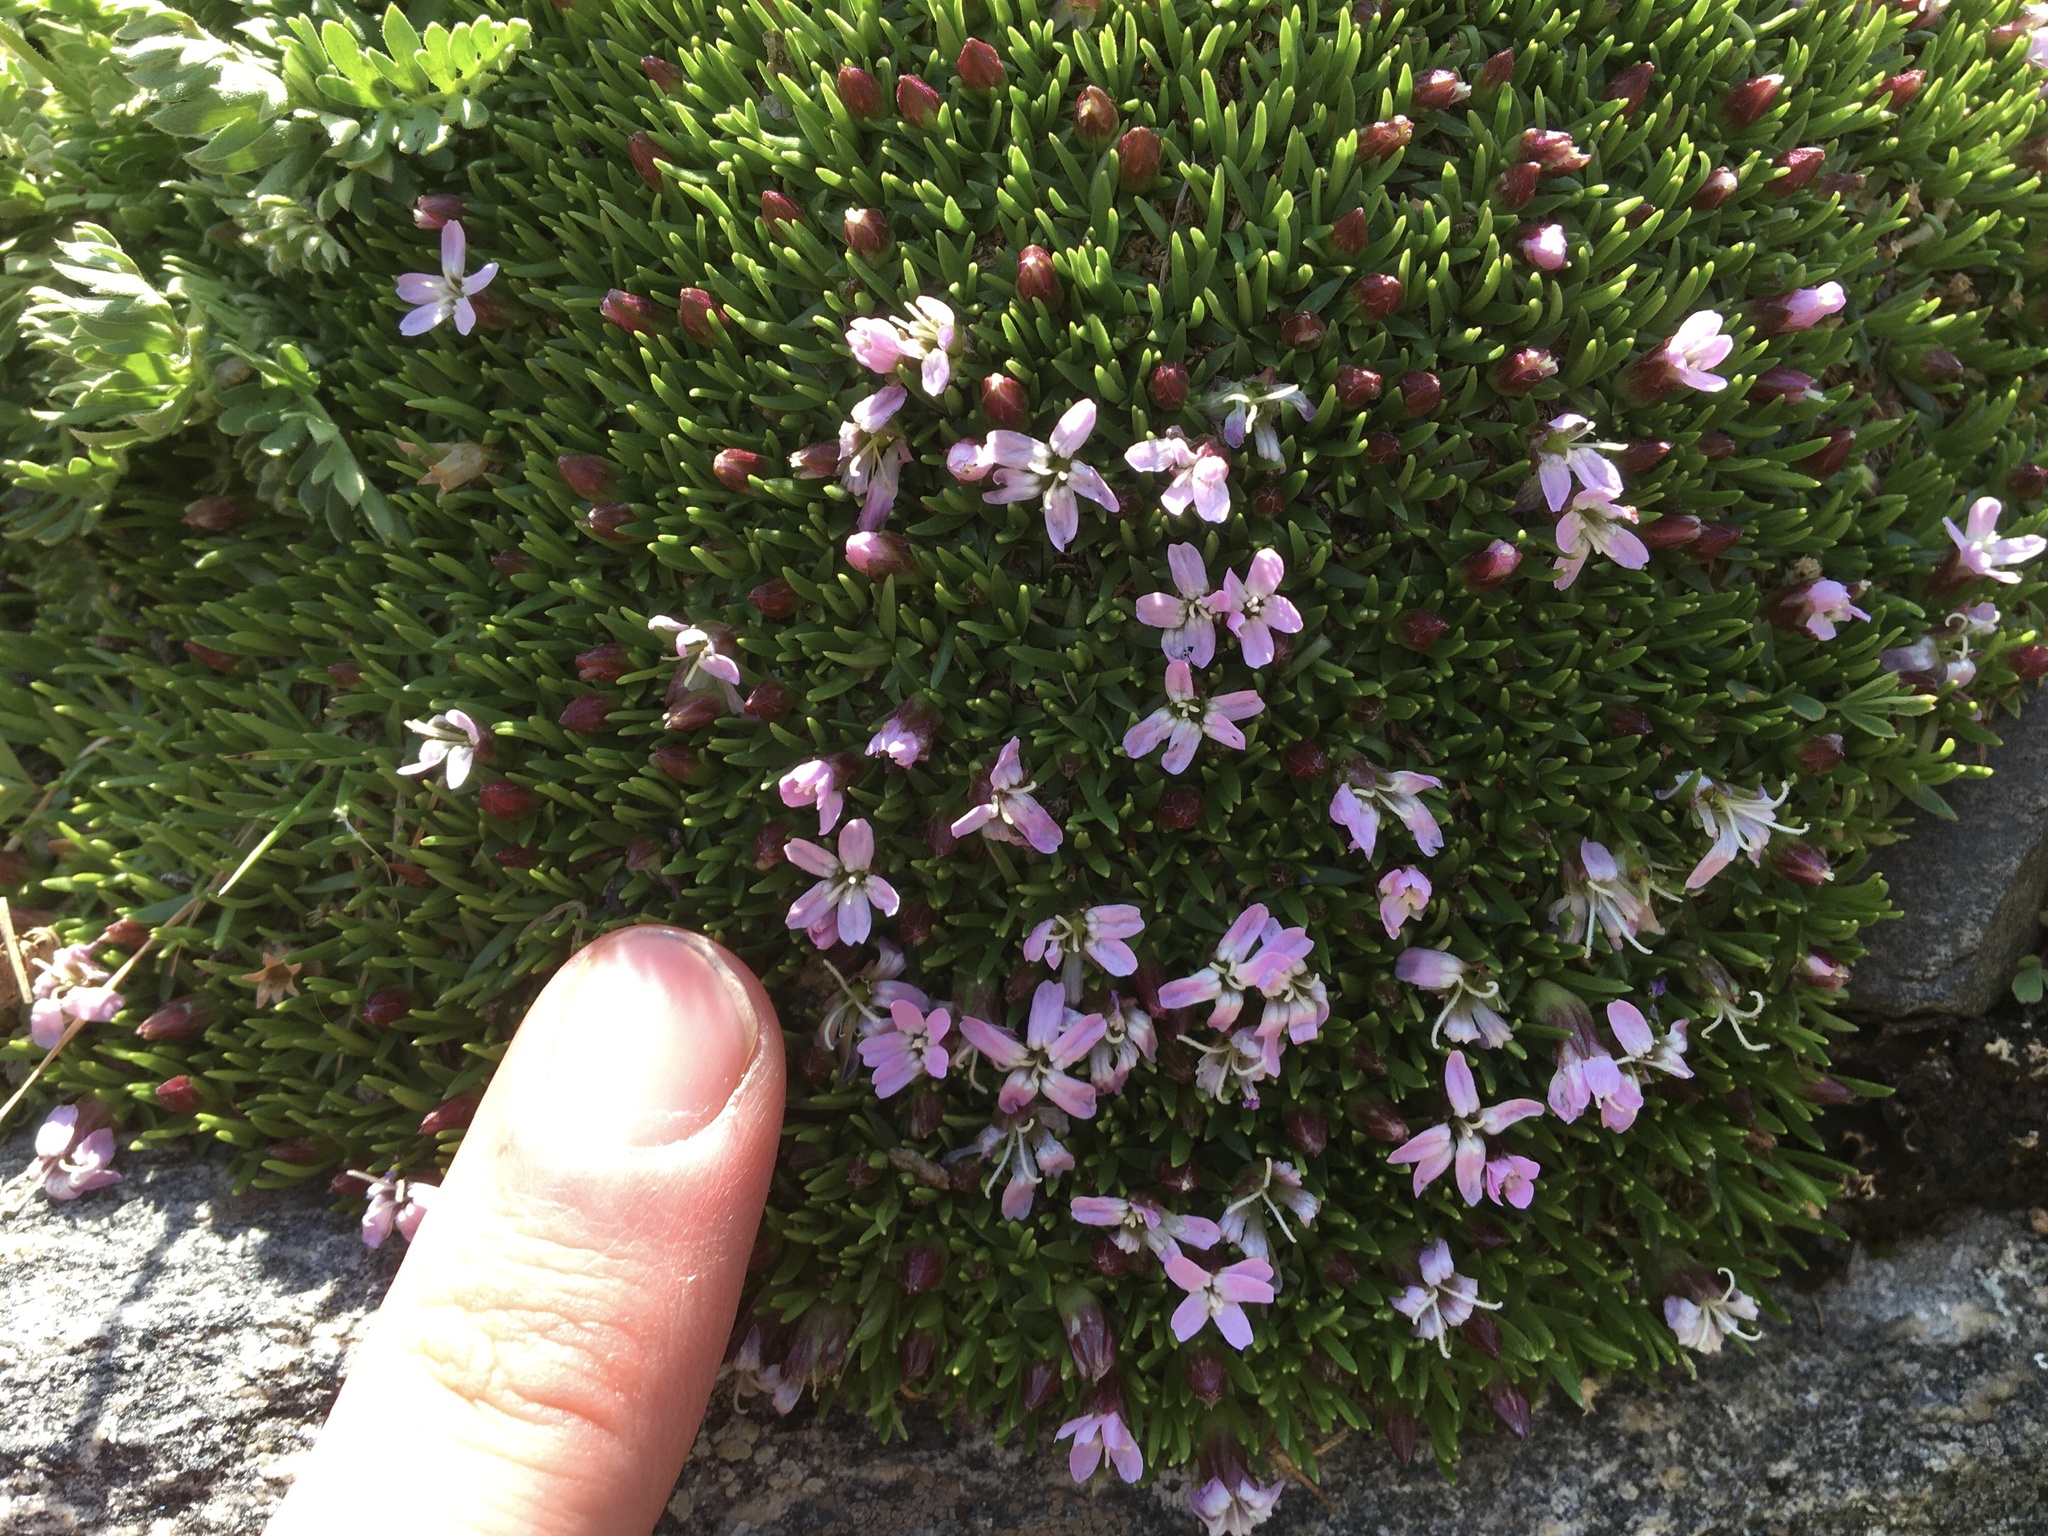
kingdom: Plantae
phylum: Tracheophyta
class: Magnoliopsida
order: Caryophyllales
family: Caryophyllaceae
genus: Silene
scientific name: Silene acaulis
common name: Moss campion
